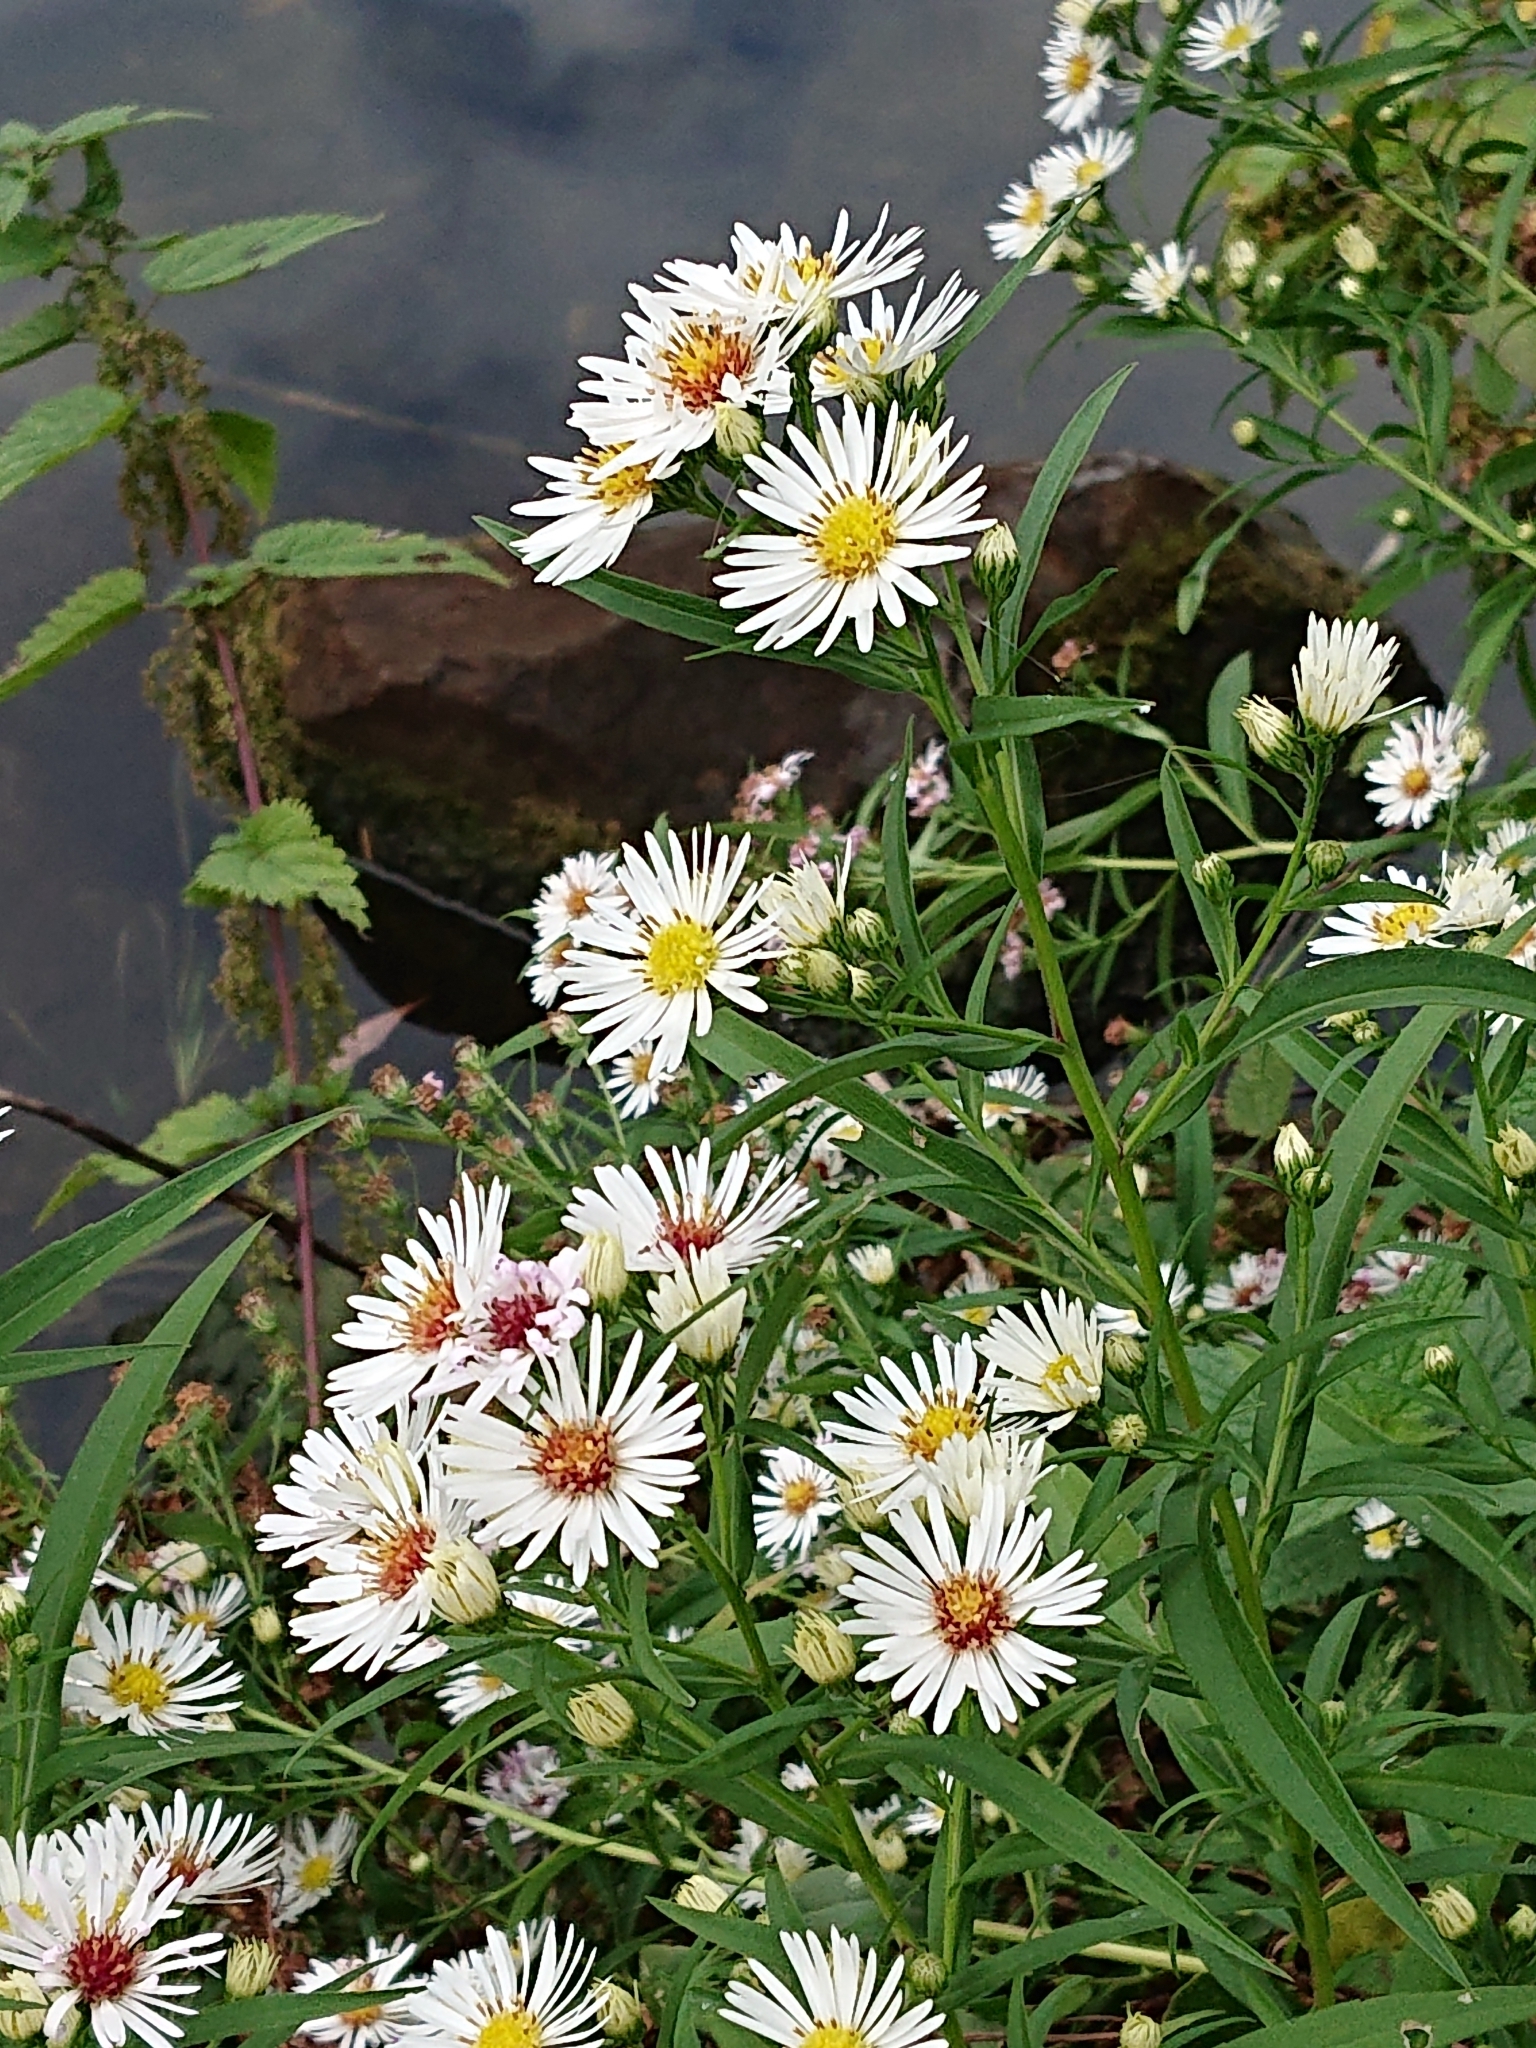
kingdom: Plantae
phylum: Tracheophyta
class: Magnoliopsida
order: Asterales
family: Asteraceae
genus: Symphyotrichum
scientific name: Symphyotrichum lanceolatum
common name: Panicled aster
